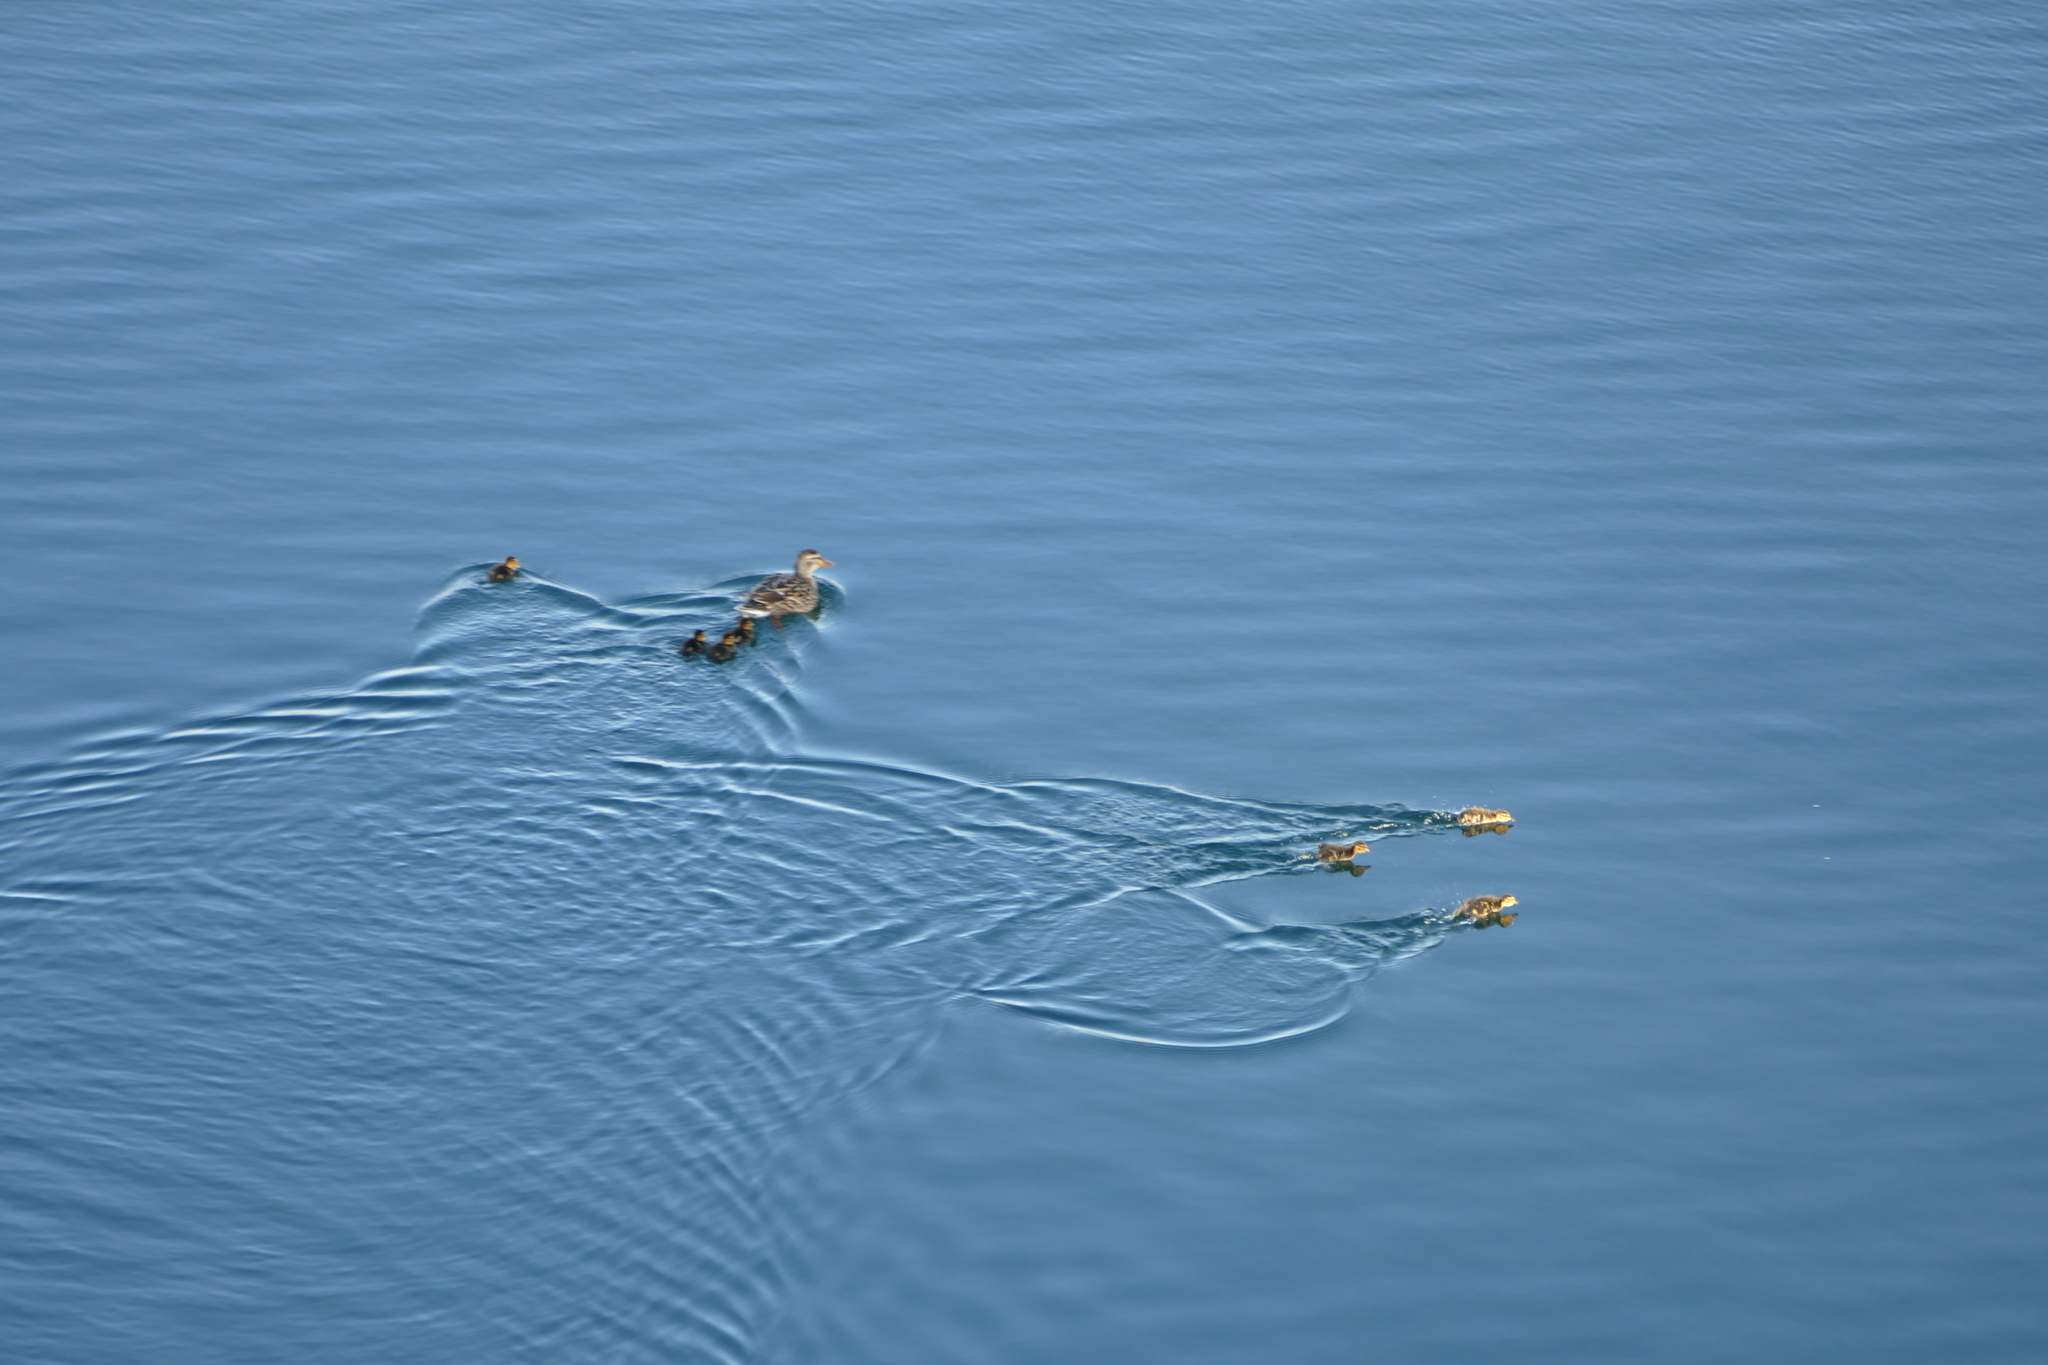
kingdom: Animalia
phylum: Chordata
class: Aves
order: Anseriformes
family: Anatidae
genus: Anas
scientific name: Anas platyrhynchos
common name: Mallard
